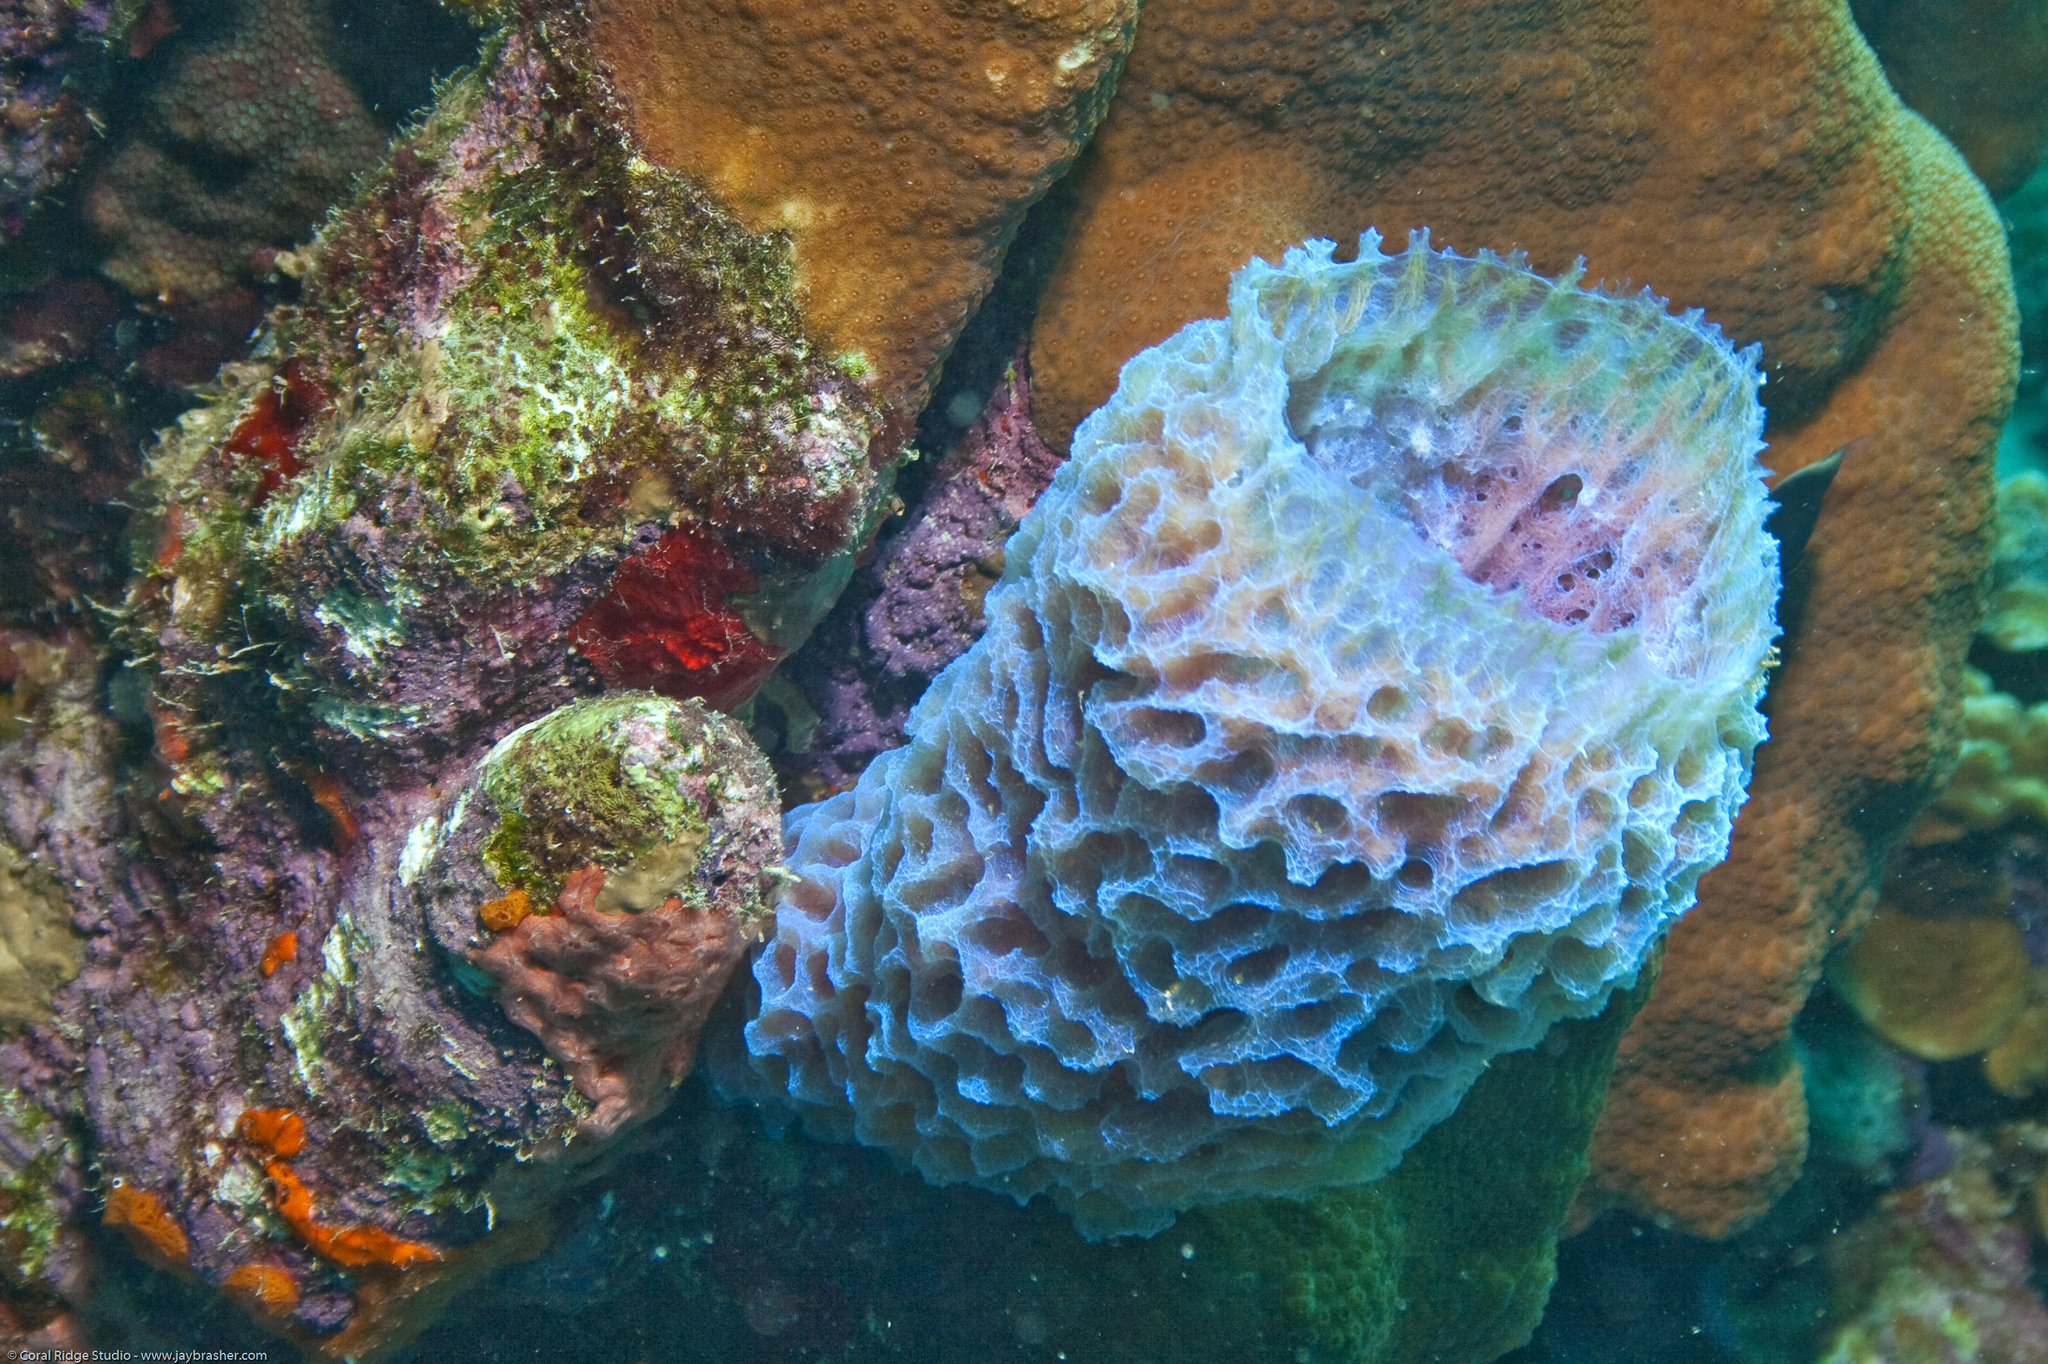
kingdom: Animalia
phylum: Porifera
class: Demospongiae
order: Haplosclerida
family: Callyspongiidae
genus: Callyspongia
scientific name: Callyspongia plicifera
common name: Azure vase sponge
